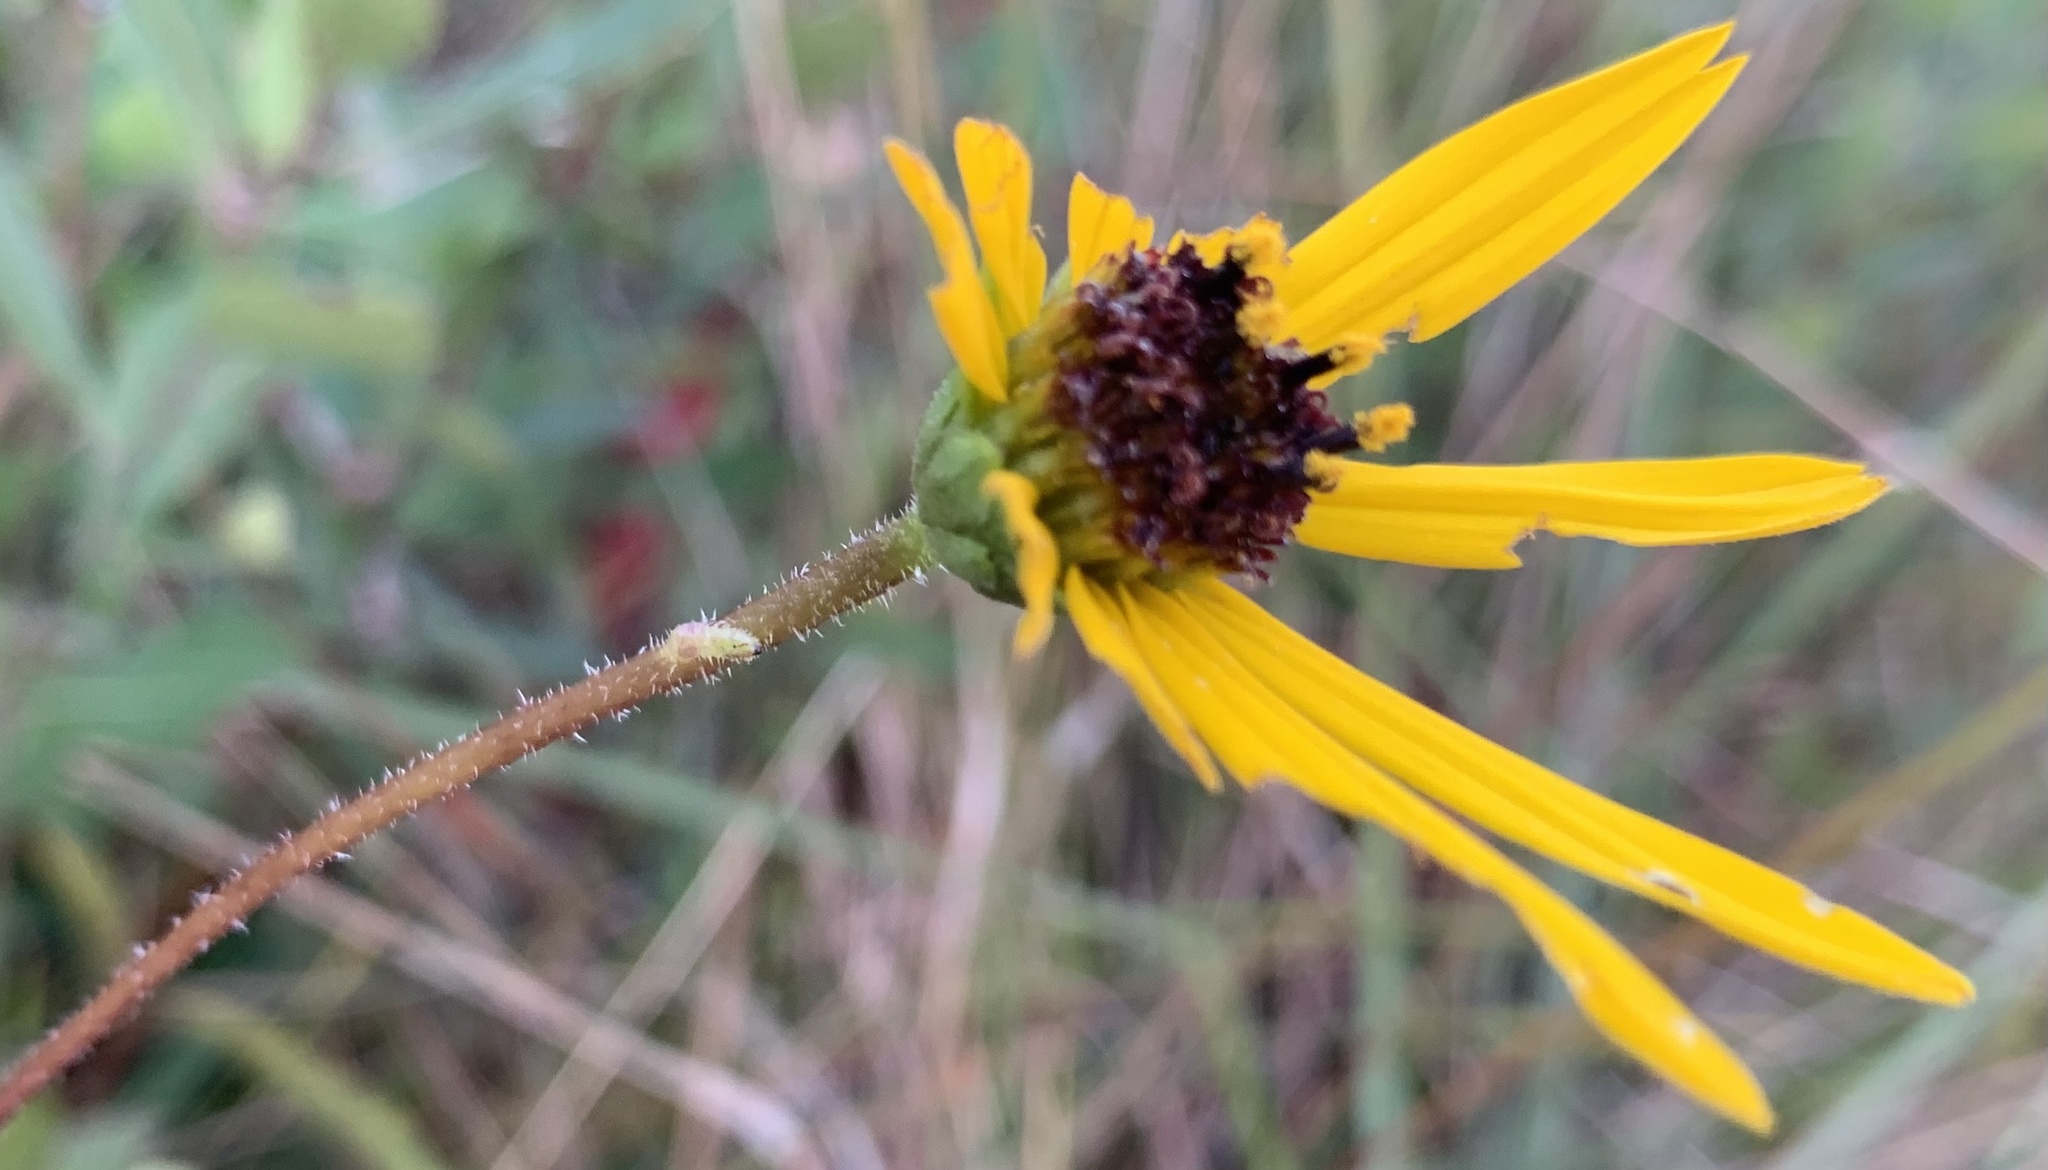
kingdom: Plantae
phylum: Tracheophyta
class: Magnoliopsida
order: Asterales
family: Asteraceae
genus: Helianthus
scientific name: Helianthus heterophyllus
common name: Wetland sunflower
